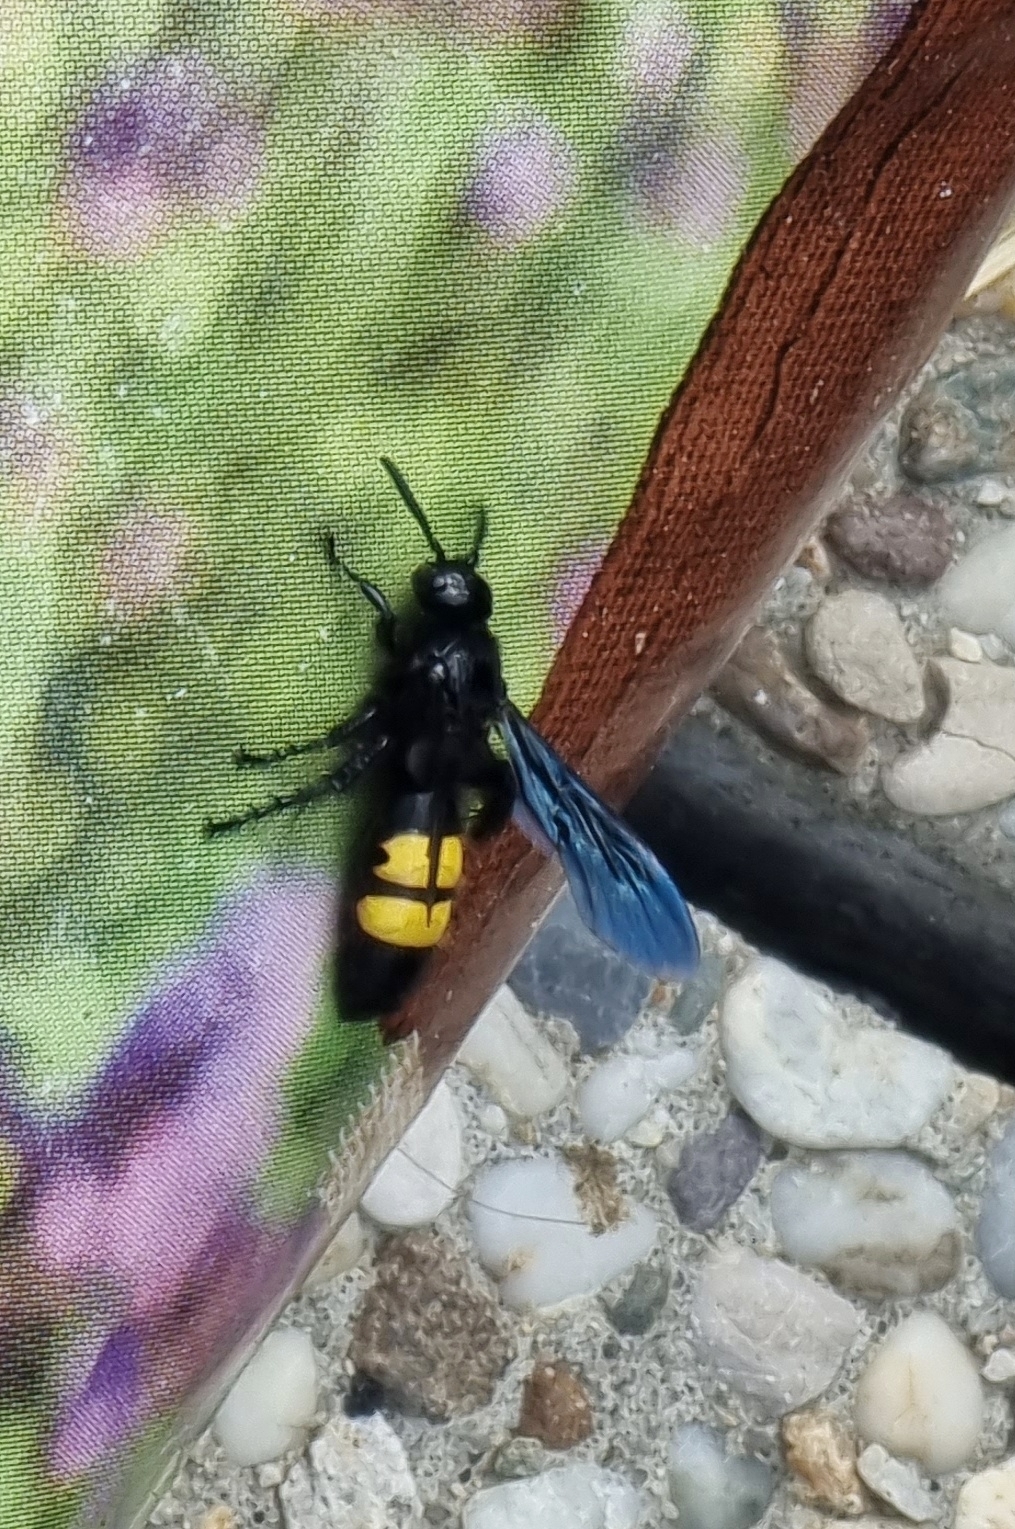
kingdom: Animalia
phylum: Arthropoda
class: Insecta
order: Hymenoptera
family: Scoliidae
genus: Scolia
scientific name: Scolia hirta
